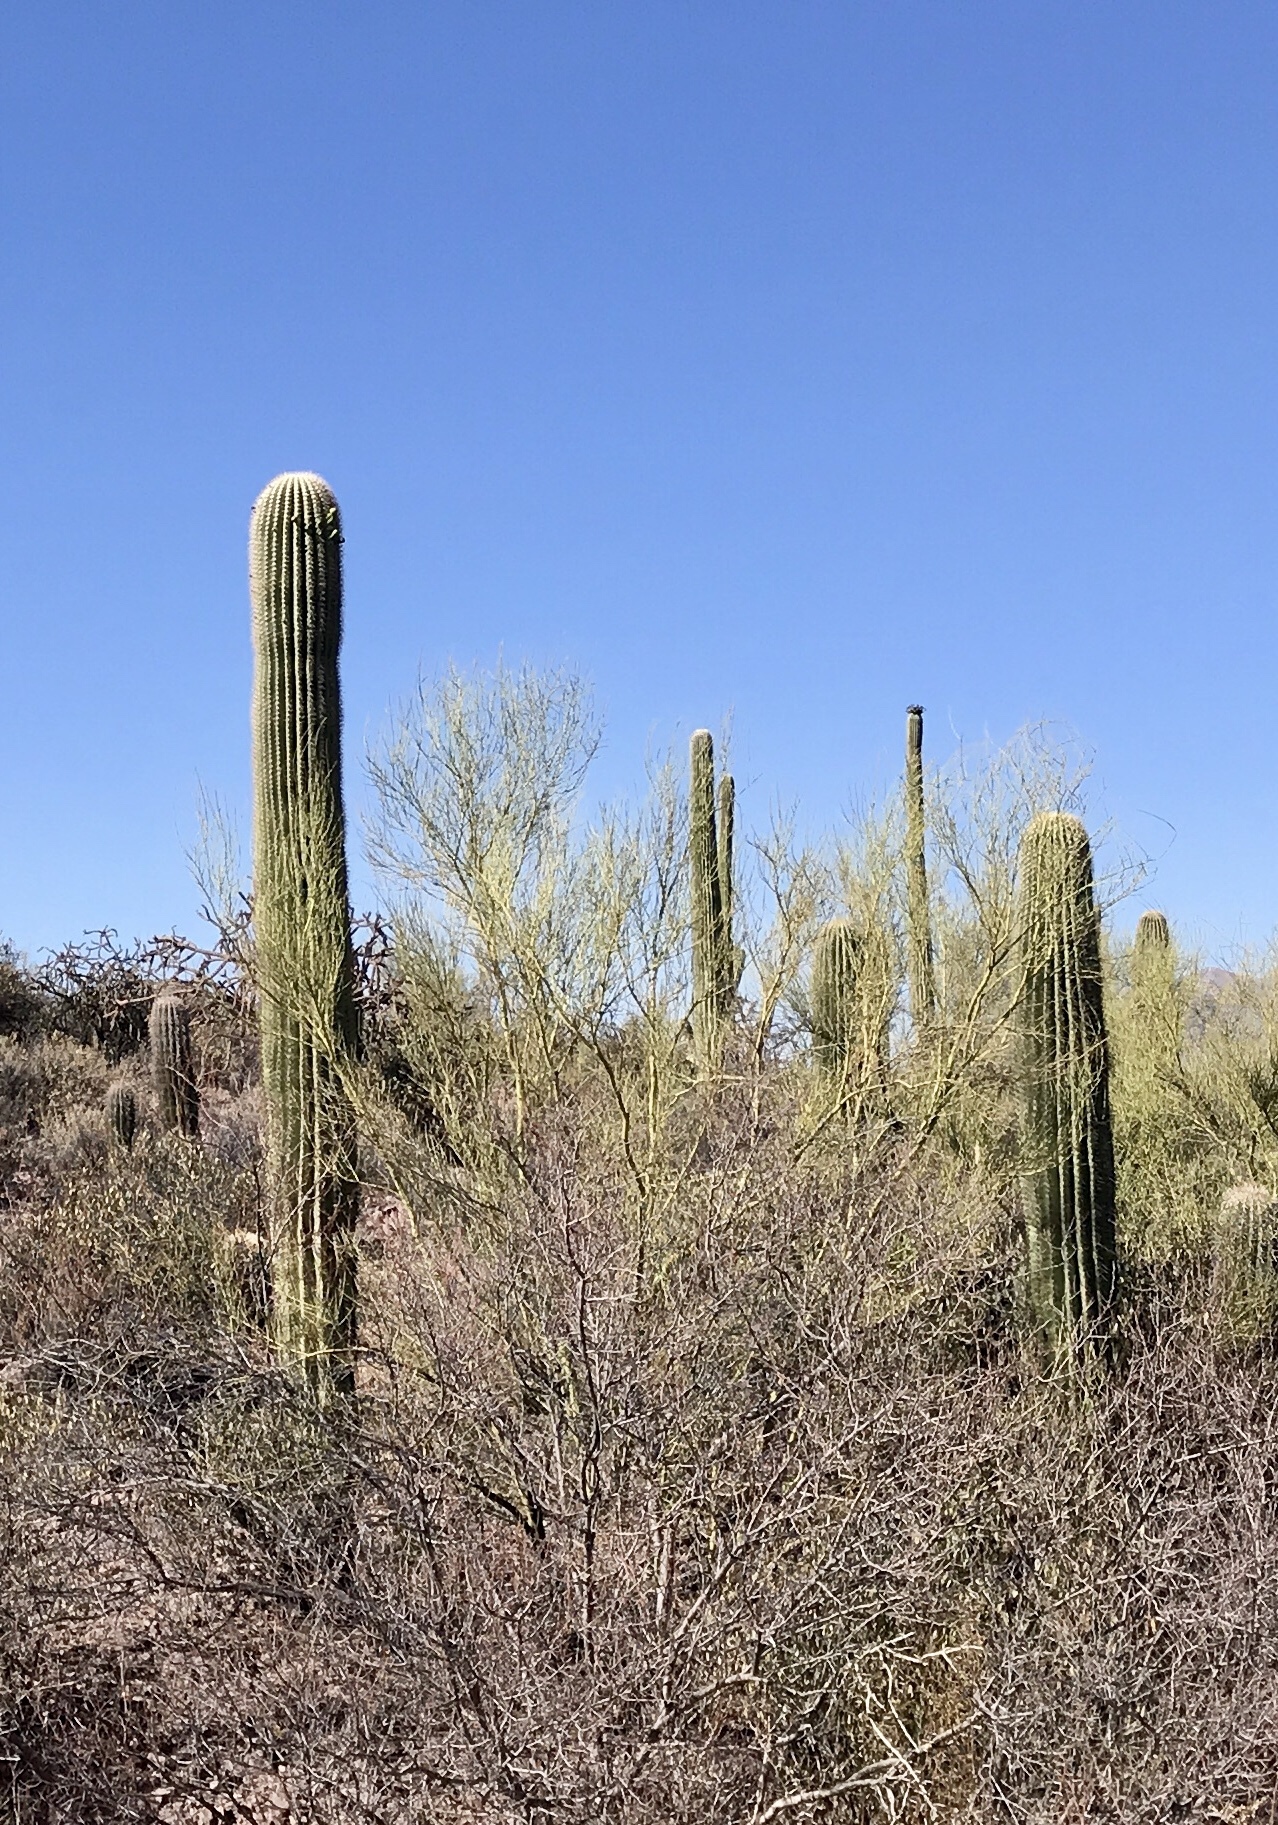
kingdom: Plantae
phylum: Tracheophyta
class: Magnoliopsida
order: Caryophyllales
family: Cactaceae
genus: Carnegiea
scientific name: Carnegiea gigantea
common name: Saguaro
